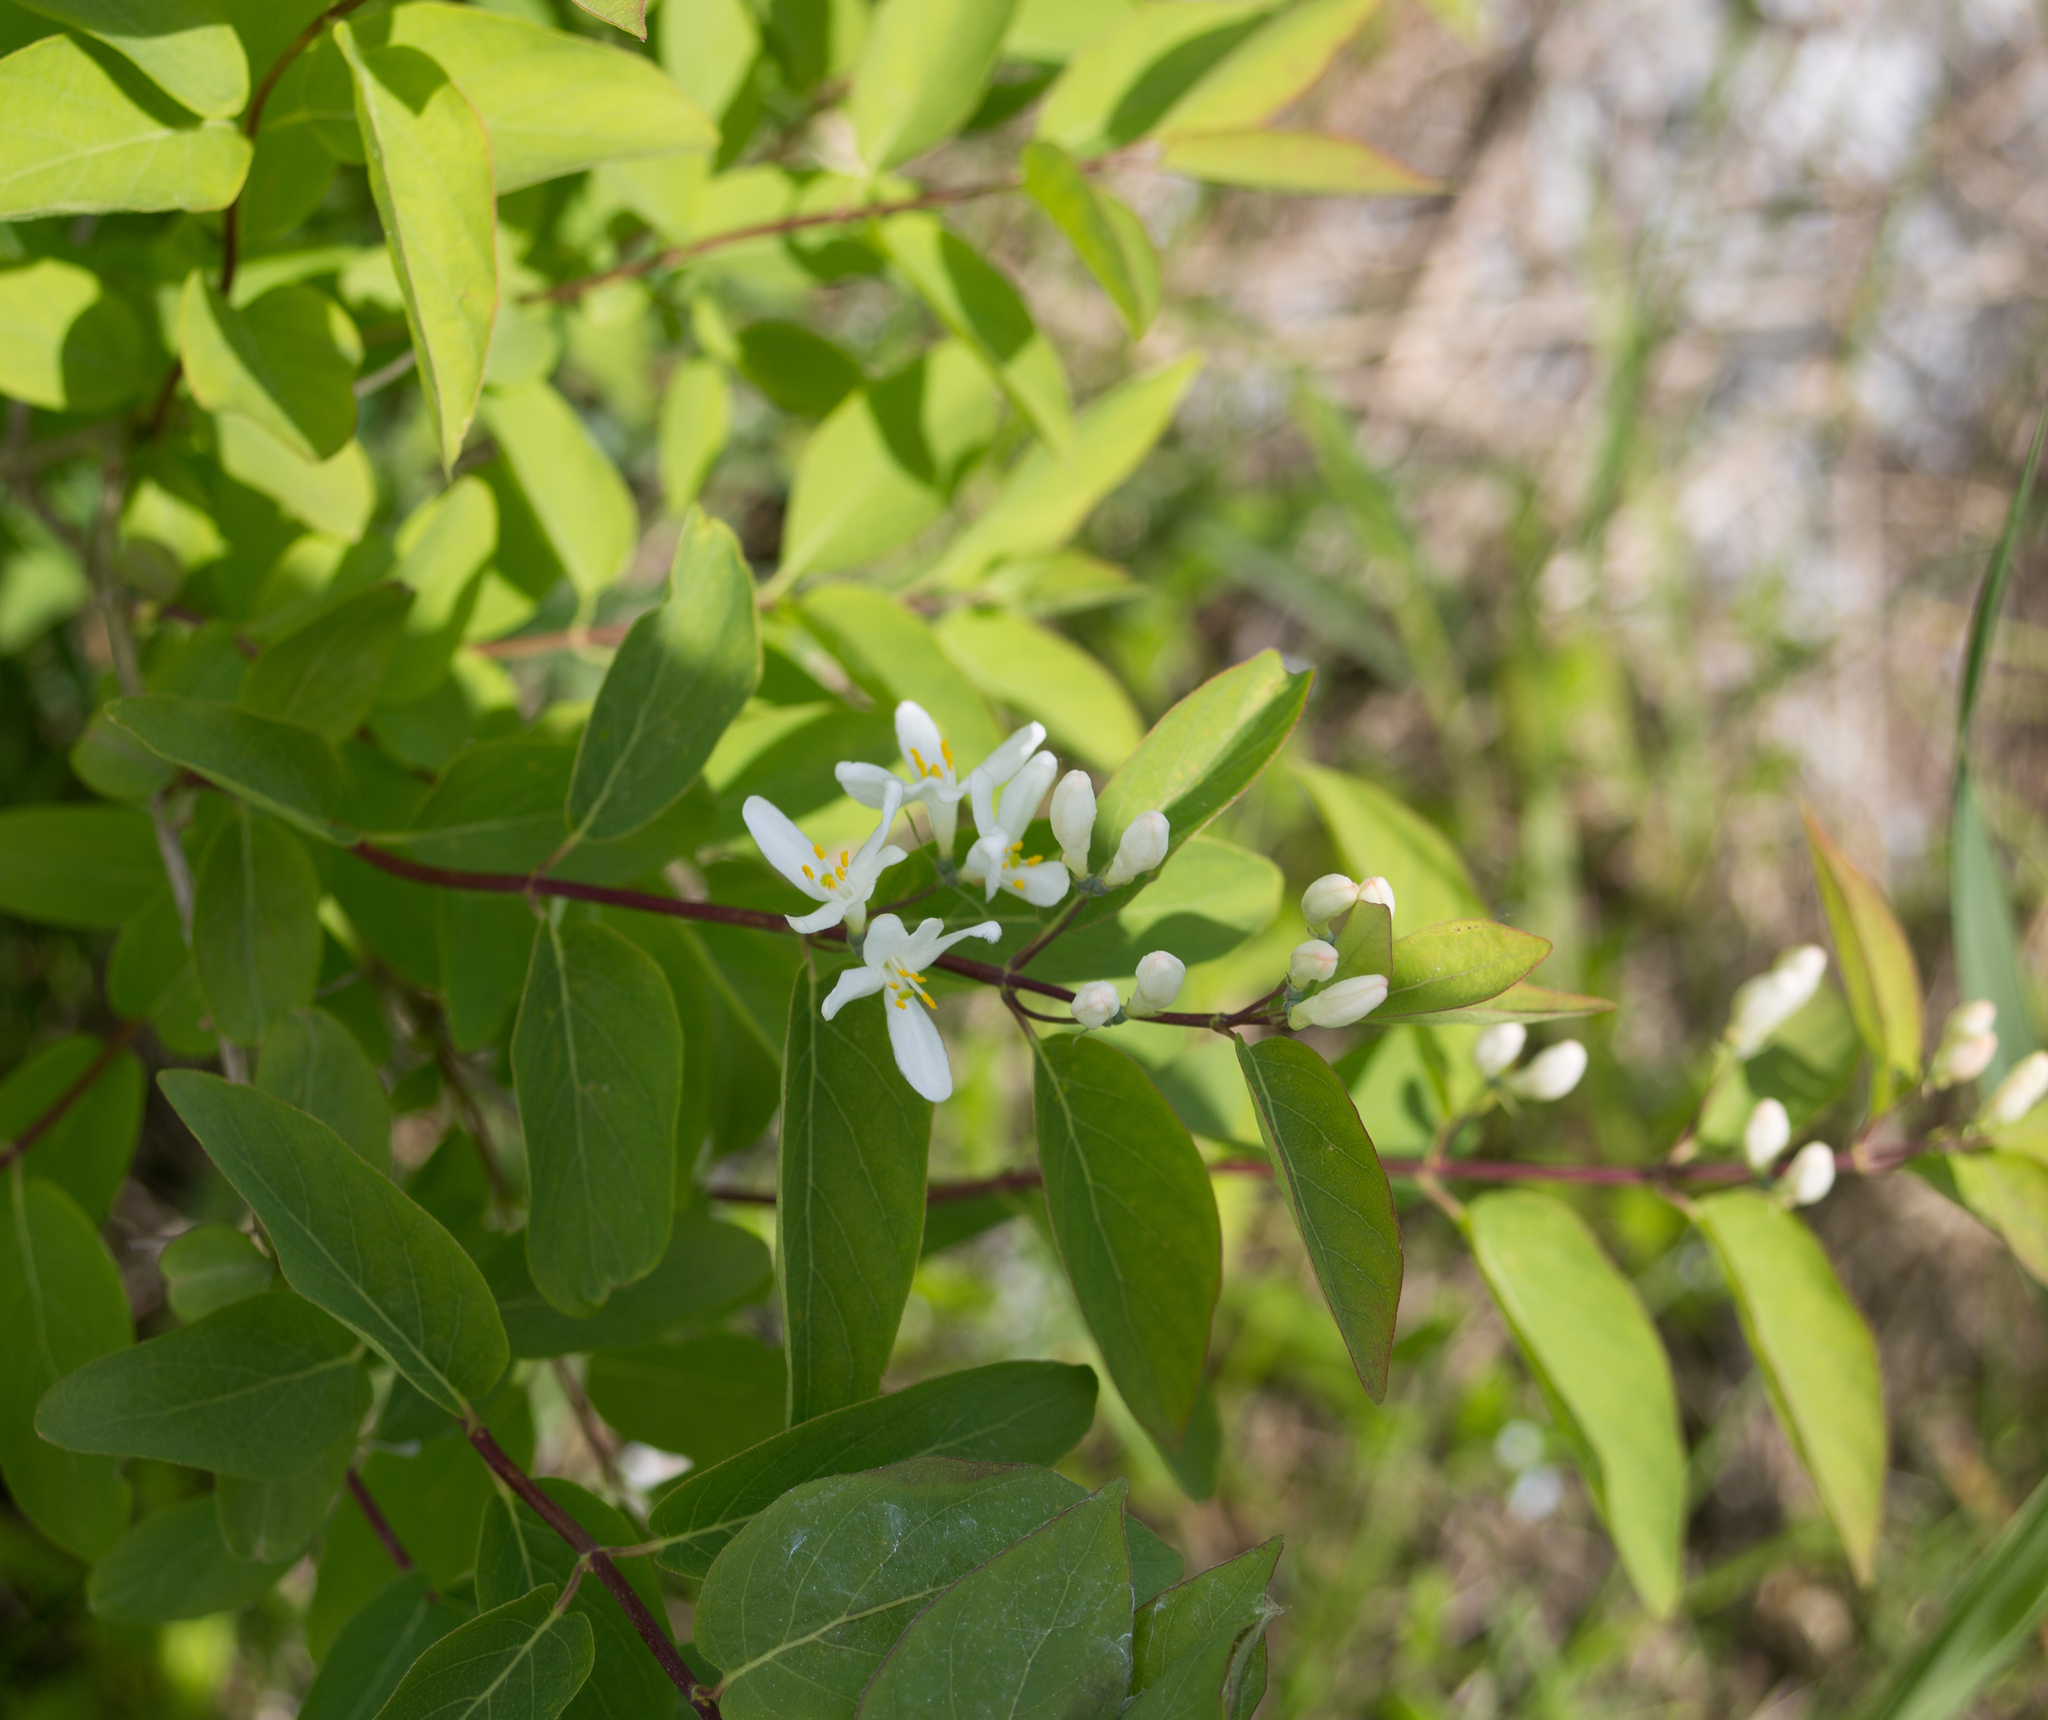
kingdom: Plantae
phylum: Tracheophyta
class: Magnoliopsida
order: Dipsacales
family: Caprifoliaceae
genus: Lonicera
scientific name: Lonicera tatarica
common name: Tatarian honeysuckle
